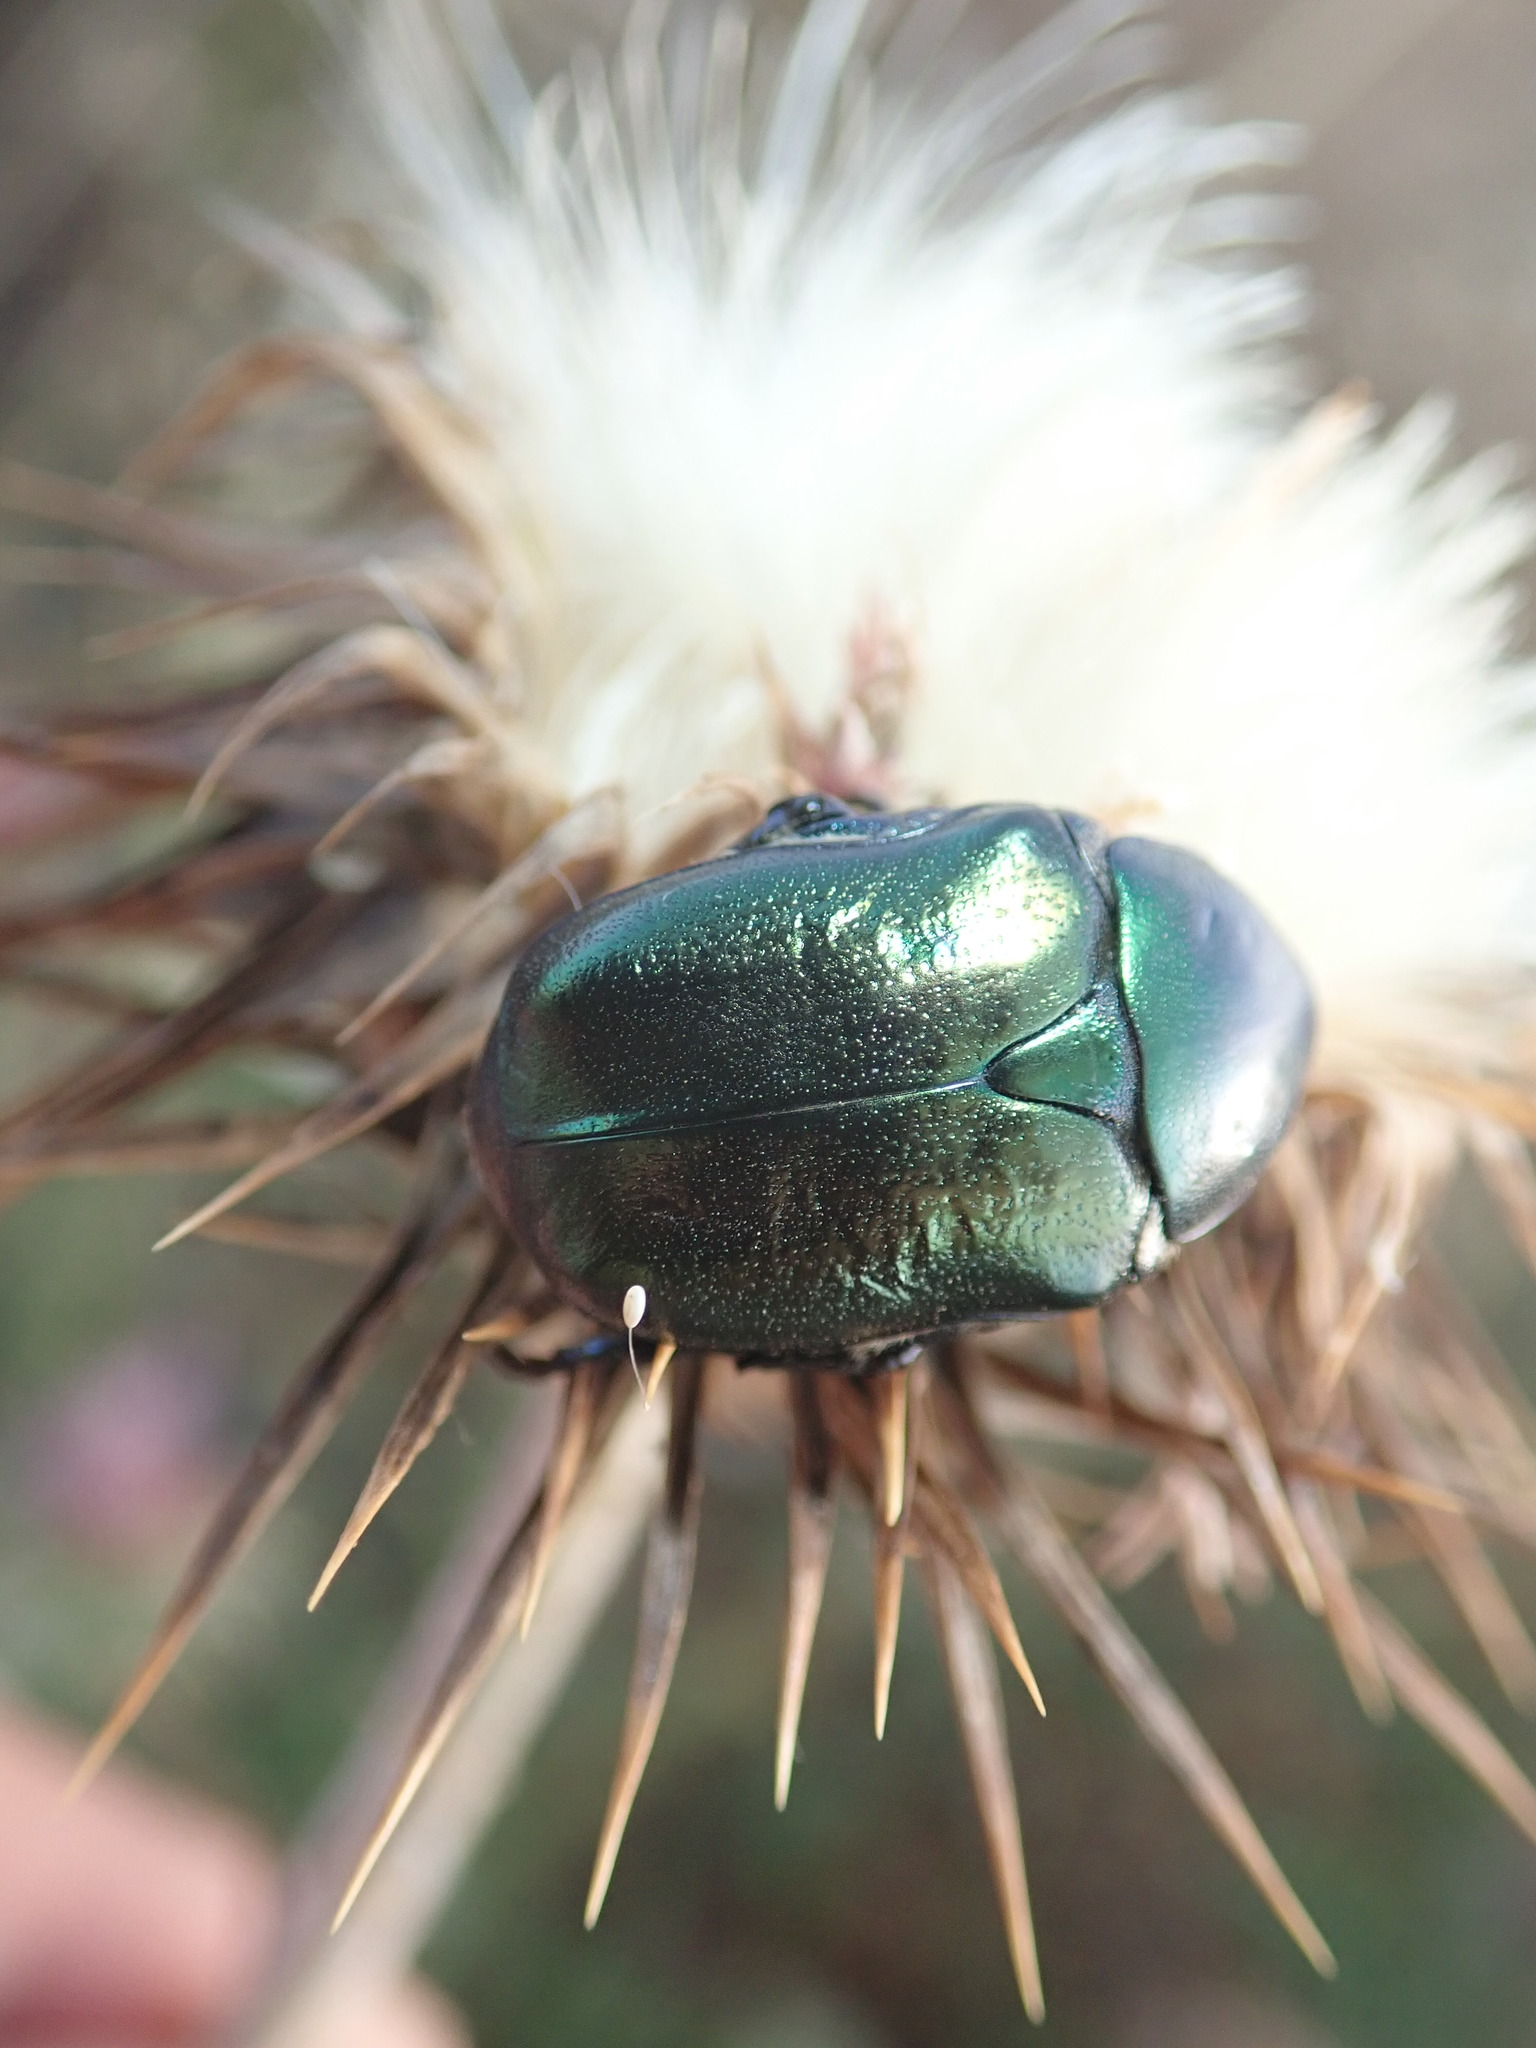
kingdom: Animalia
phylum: Arthropoda
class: Insecta
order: Coleoptera
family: Scarabaeidae
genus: Protaetia
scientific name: Protaetia angustata
